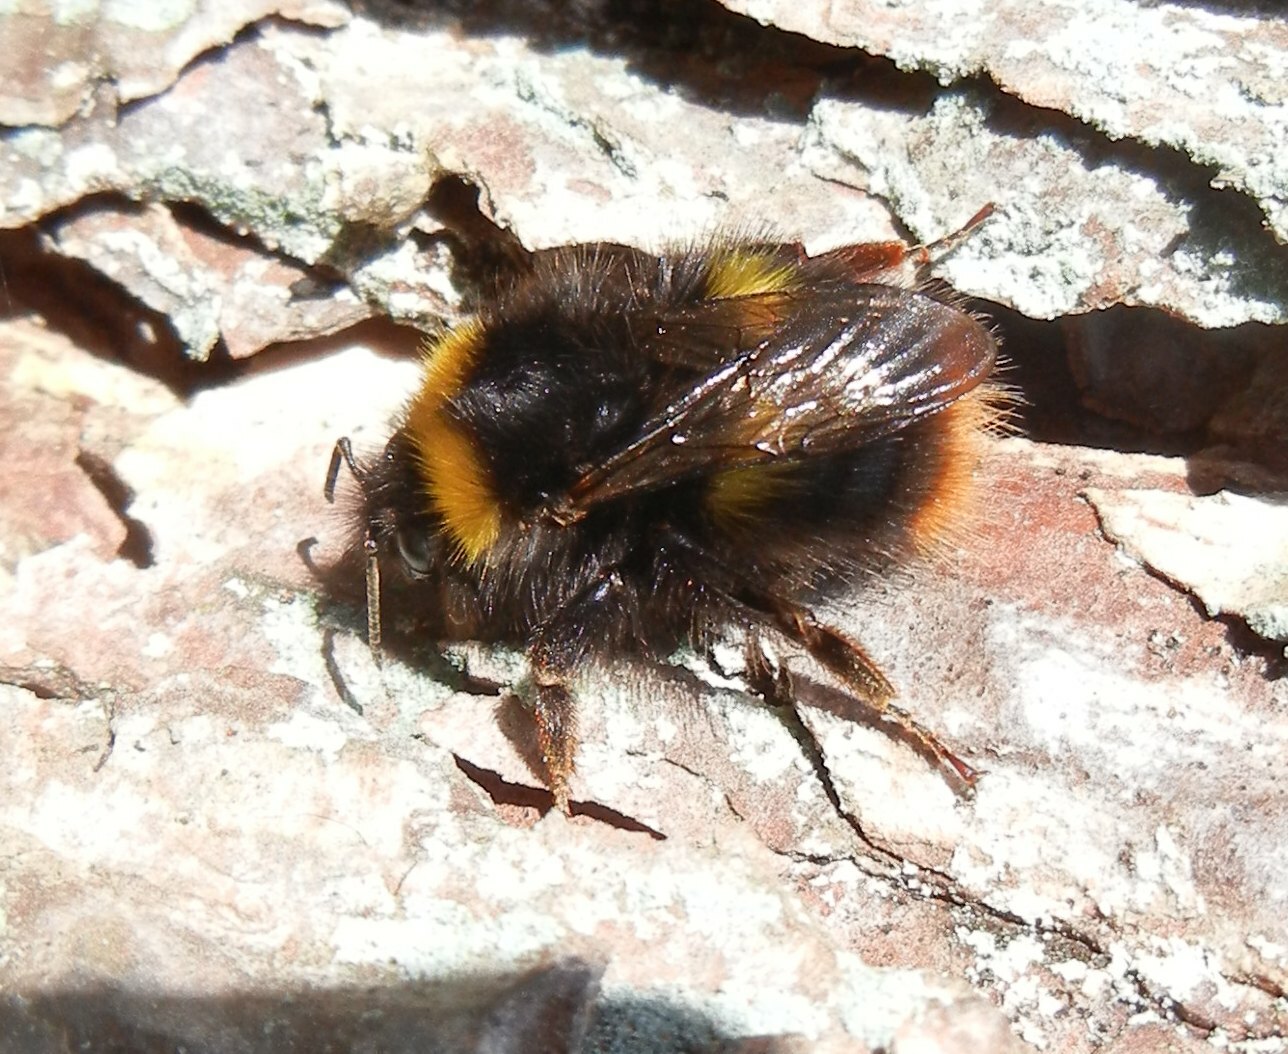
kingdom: Animalia
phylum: Arthropoda
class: Insecta
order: Hymenoptera
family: Apidae
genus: Bombus
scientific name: Bombus pratorum
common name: Early humble-bee
